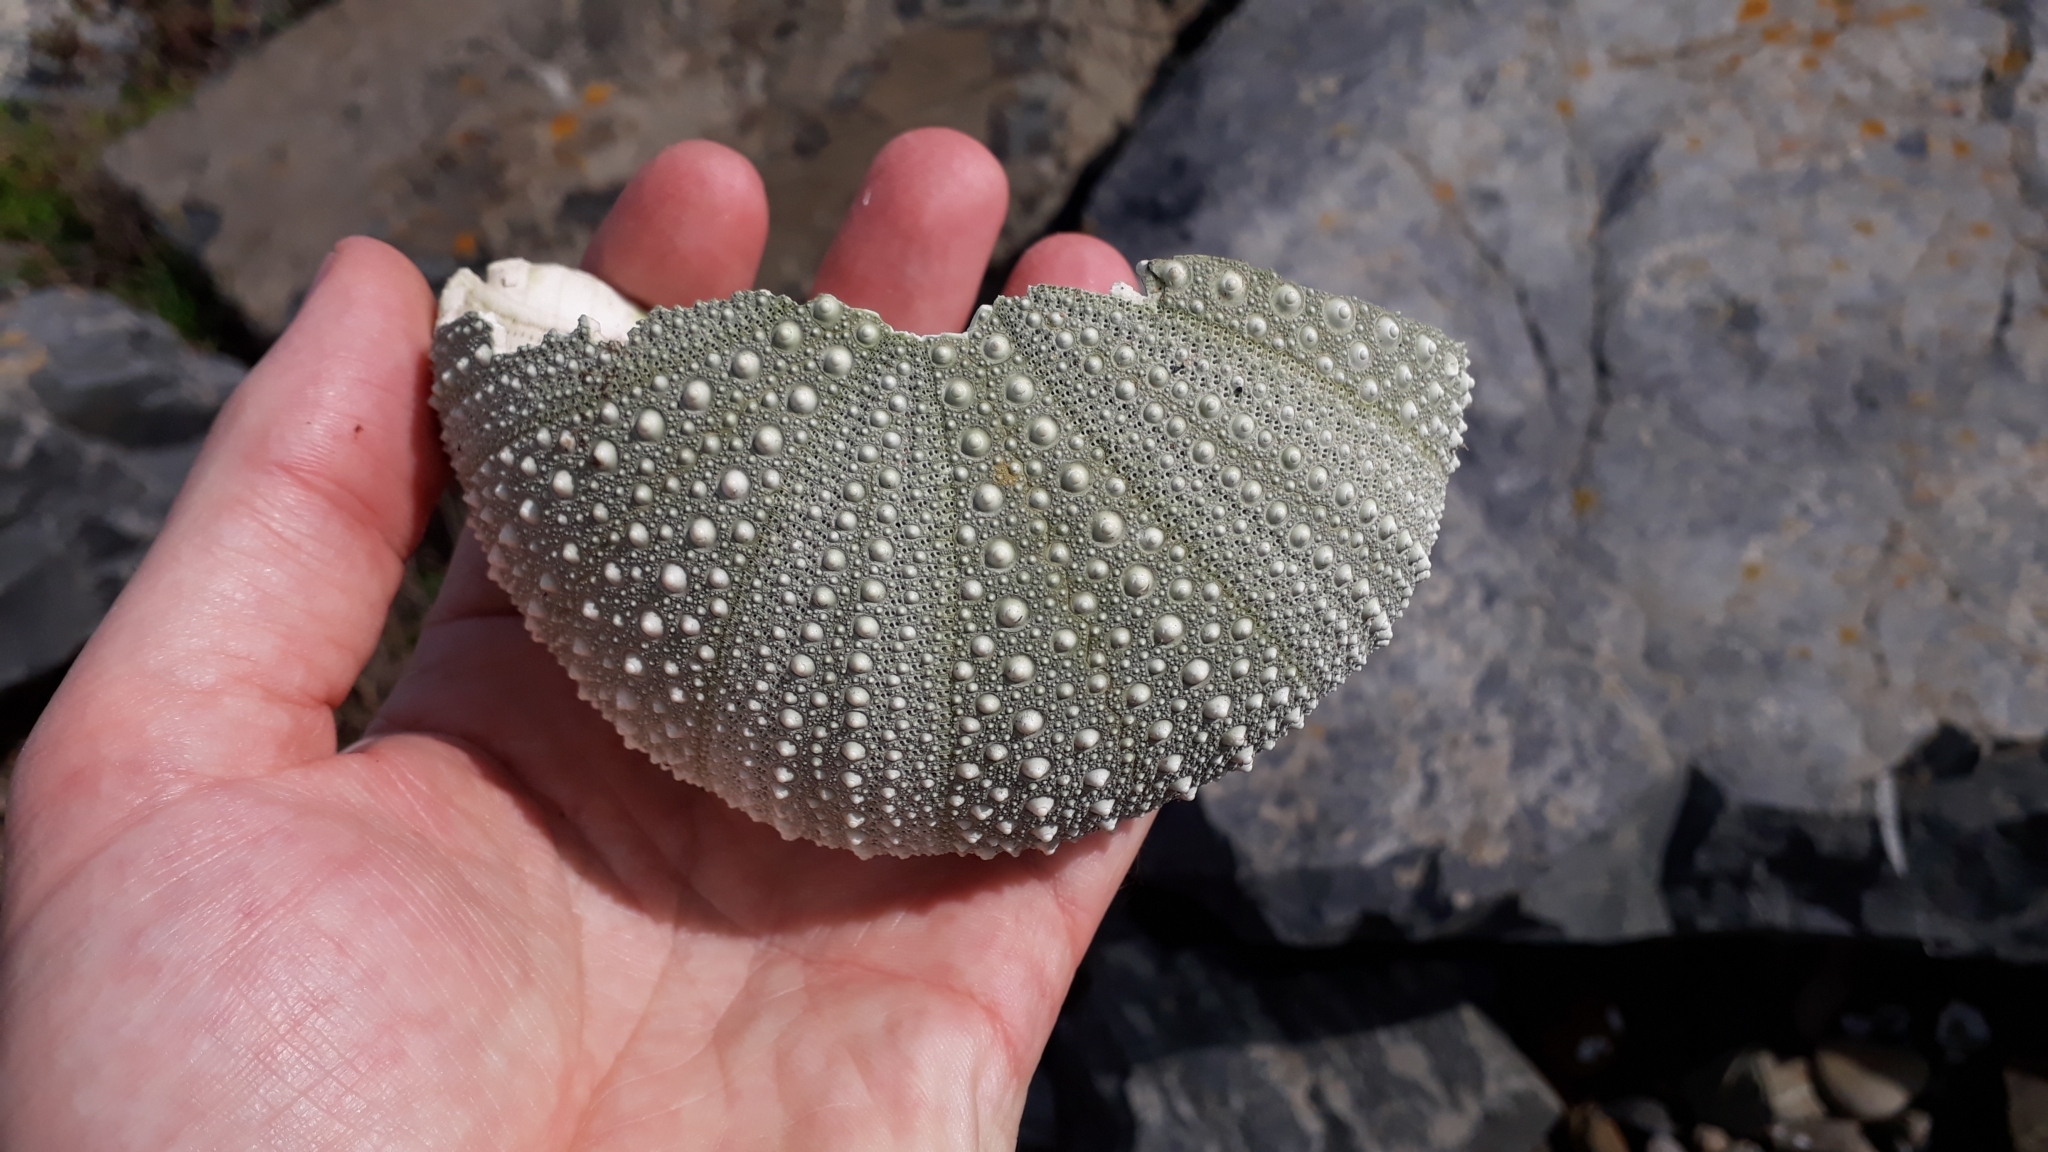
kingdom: Animalia
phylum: Echinodermata
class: Echinoidea
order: Camarodonta
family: Echinometridae
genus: Evechinus
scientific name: Evechinus chloroticus
